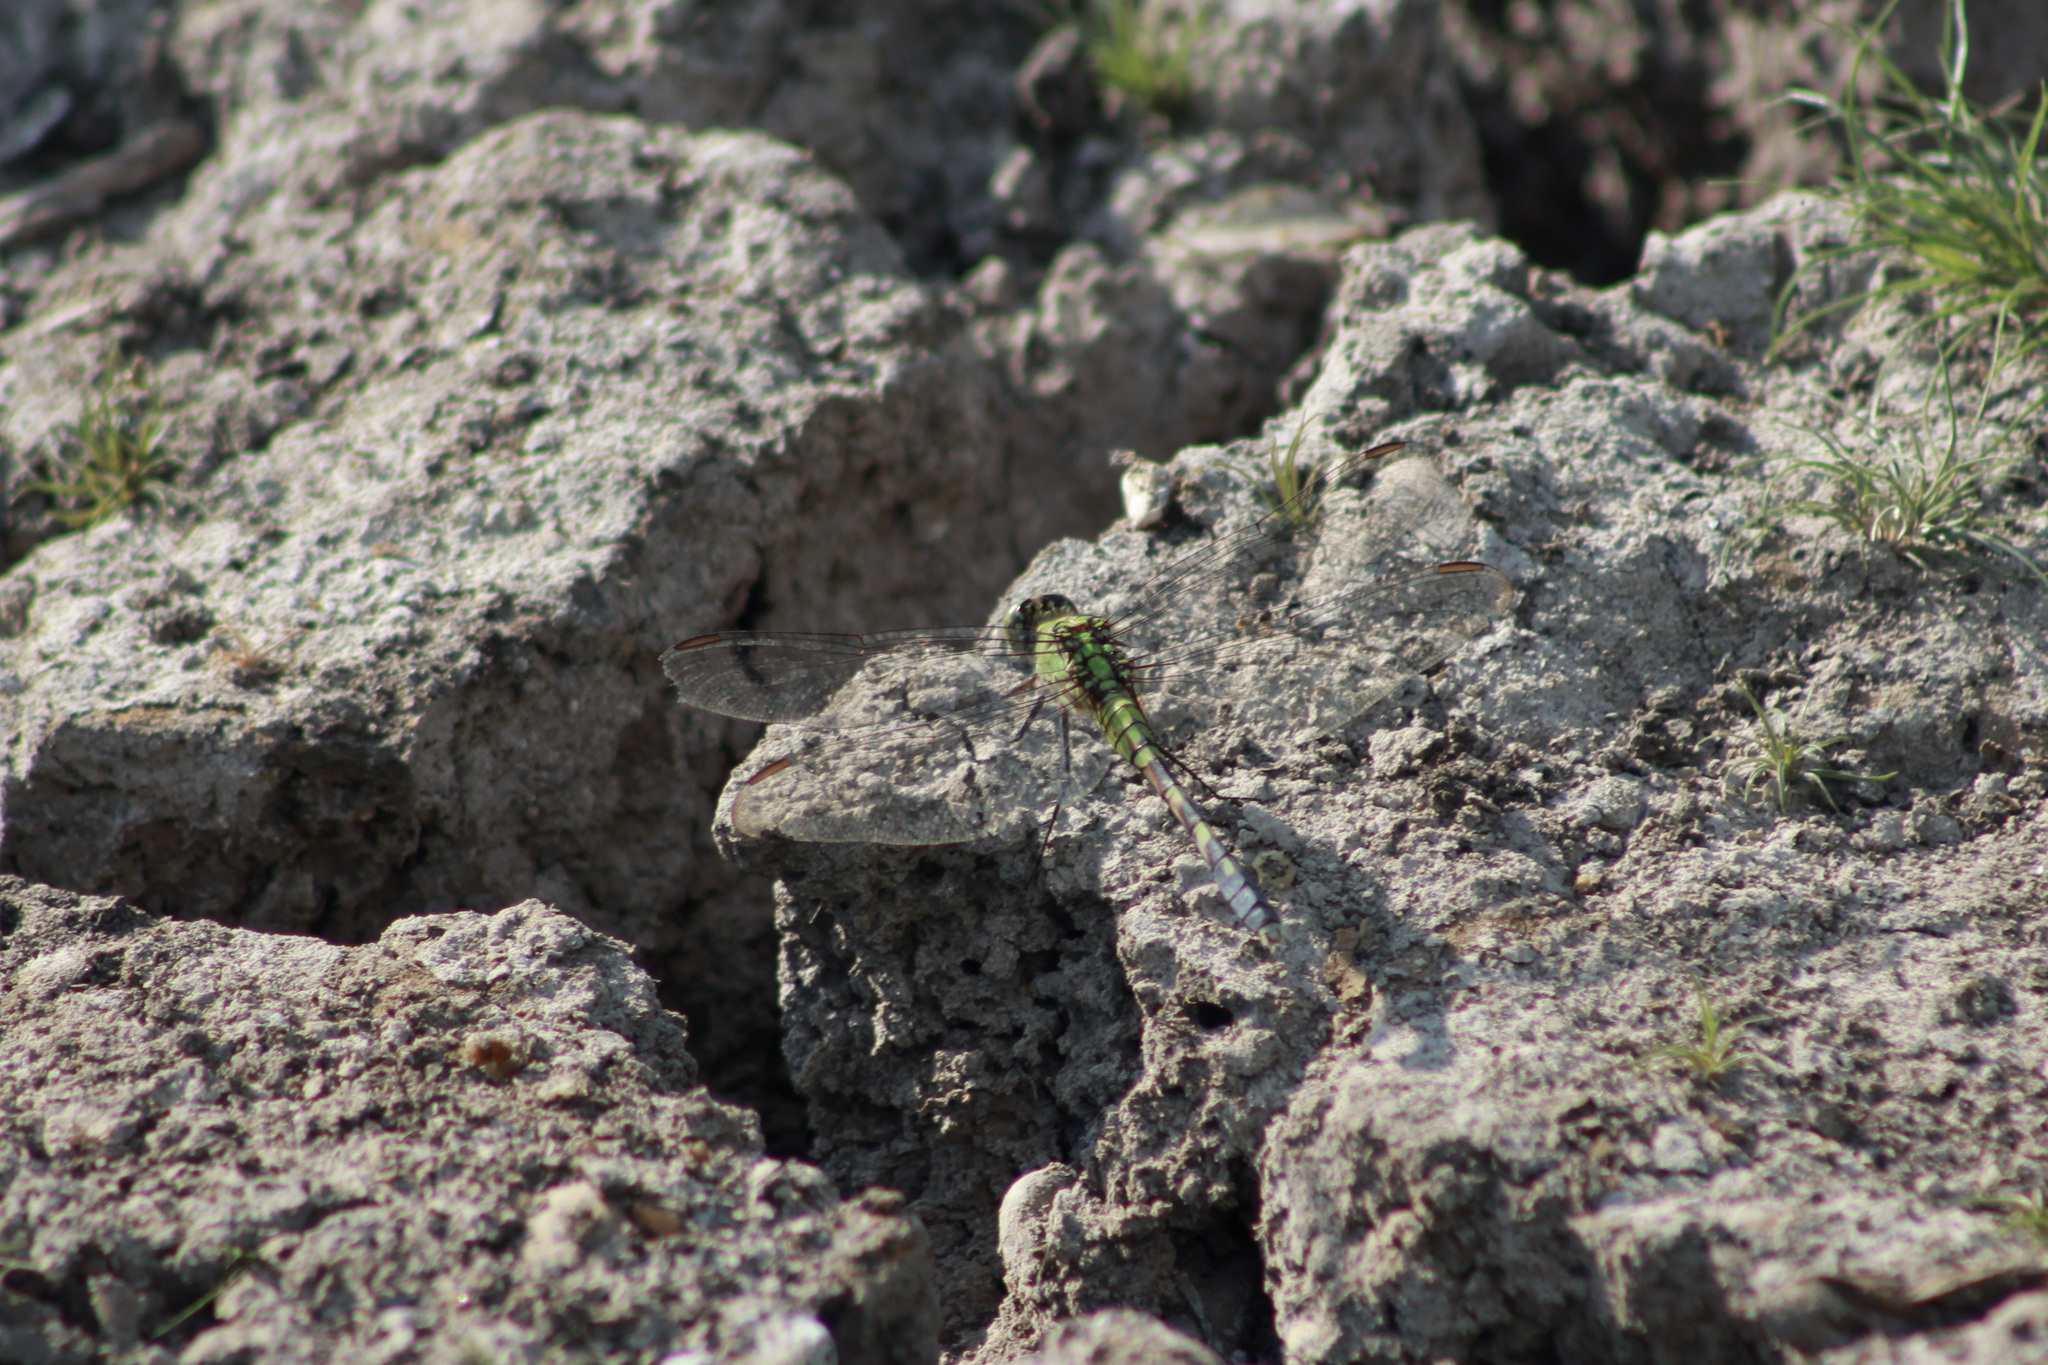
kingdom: Animalia
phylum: Arthropoda
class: Insecta
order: Odonata
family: Libellulidae
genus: Erythemis
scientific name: Erythemis simplicicollis
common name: Eastern pondhawk
